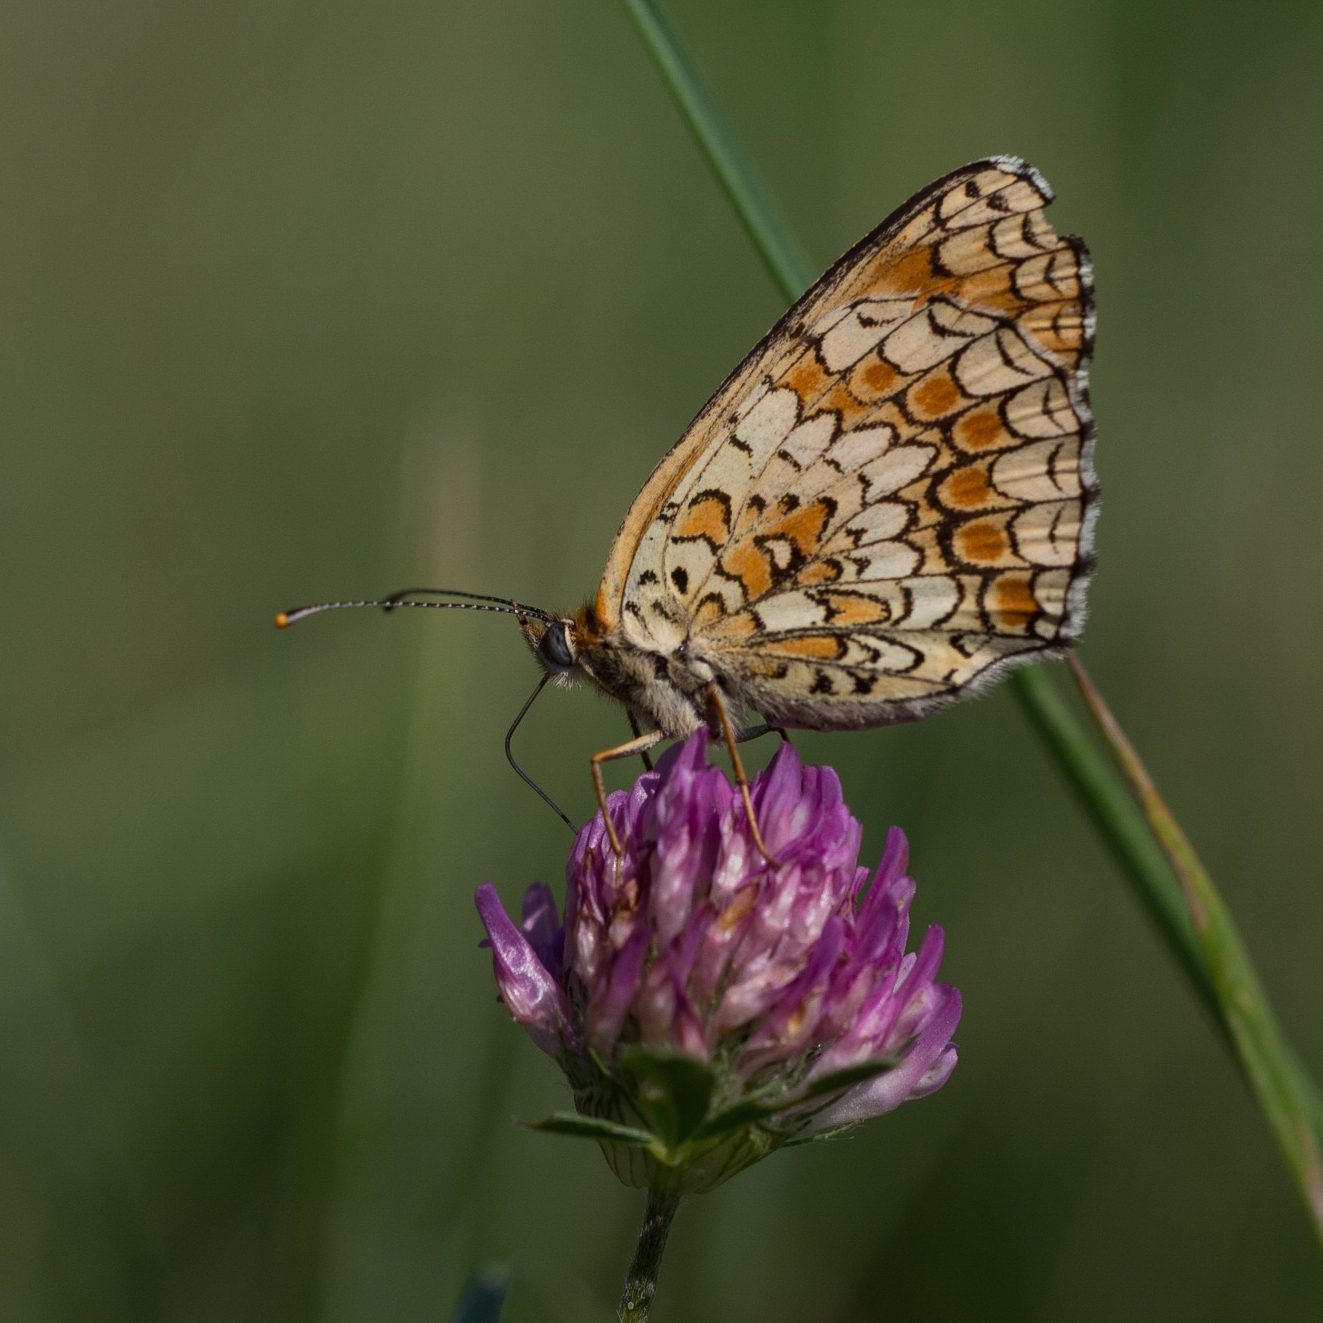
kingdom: Animalia
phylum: Arthropoda
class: Insecta
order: Lepidoptera
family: Nymphalidae
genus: Melitaea
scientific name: Melitaea phoebe
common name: Knapweed fritillary
